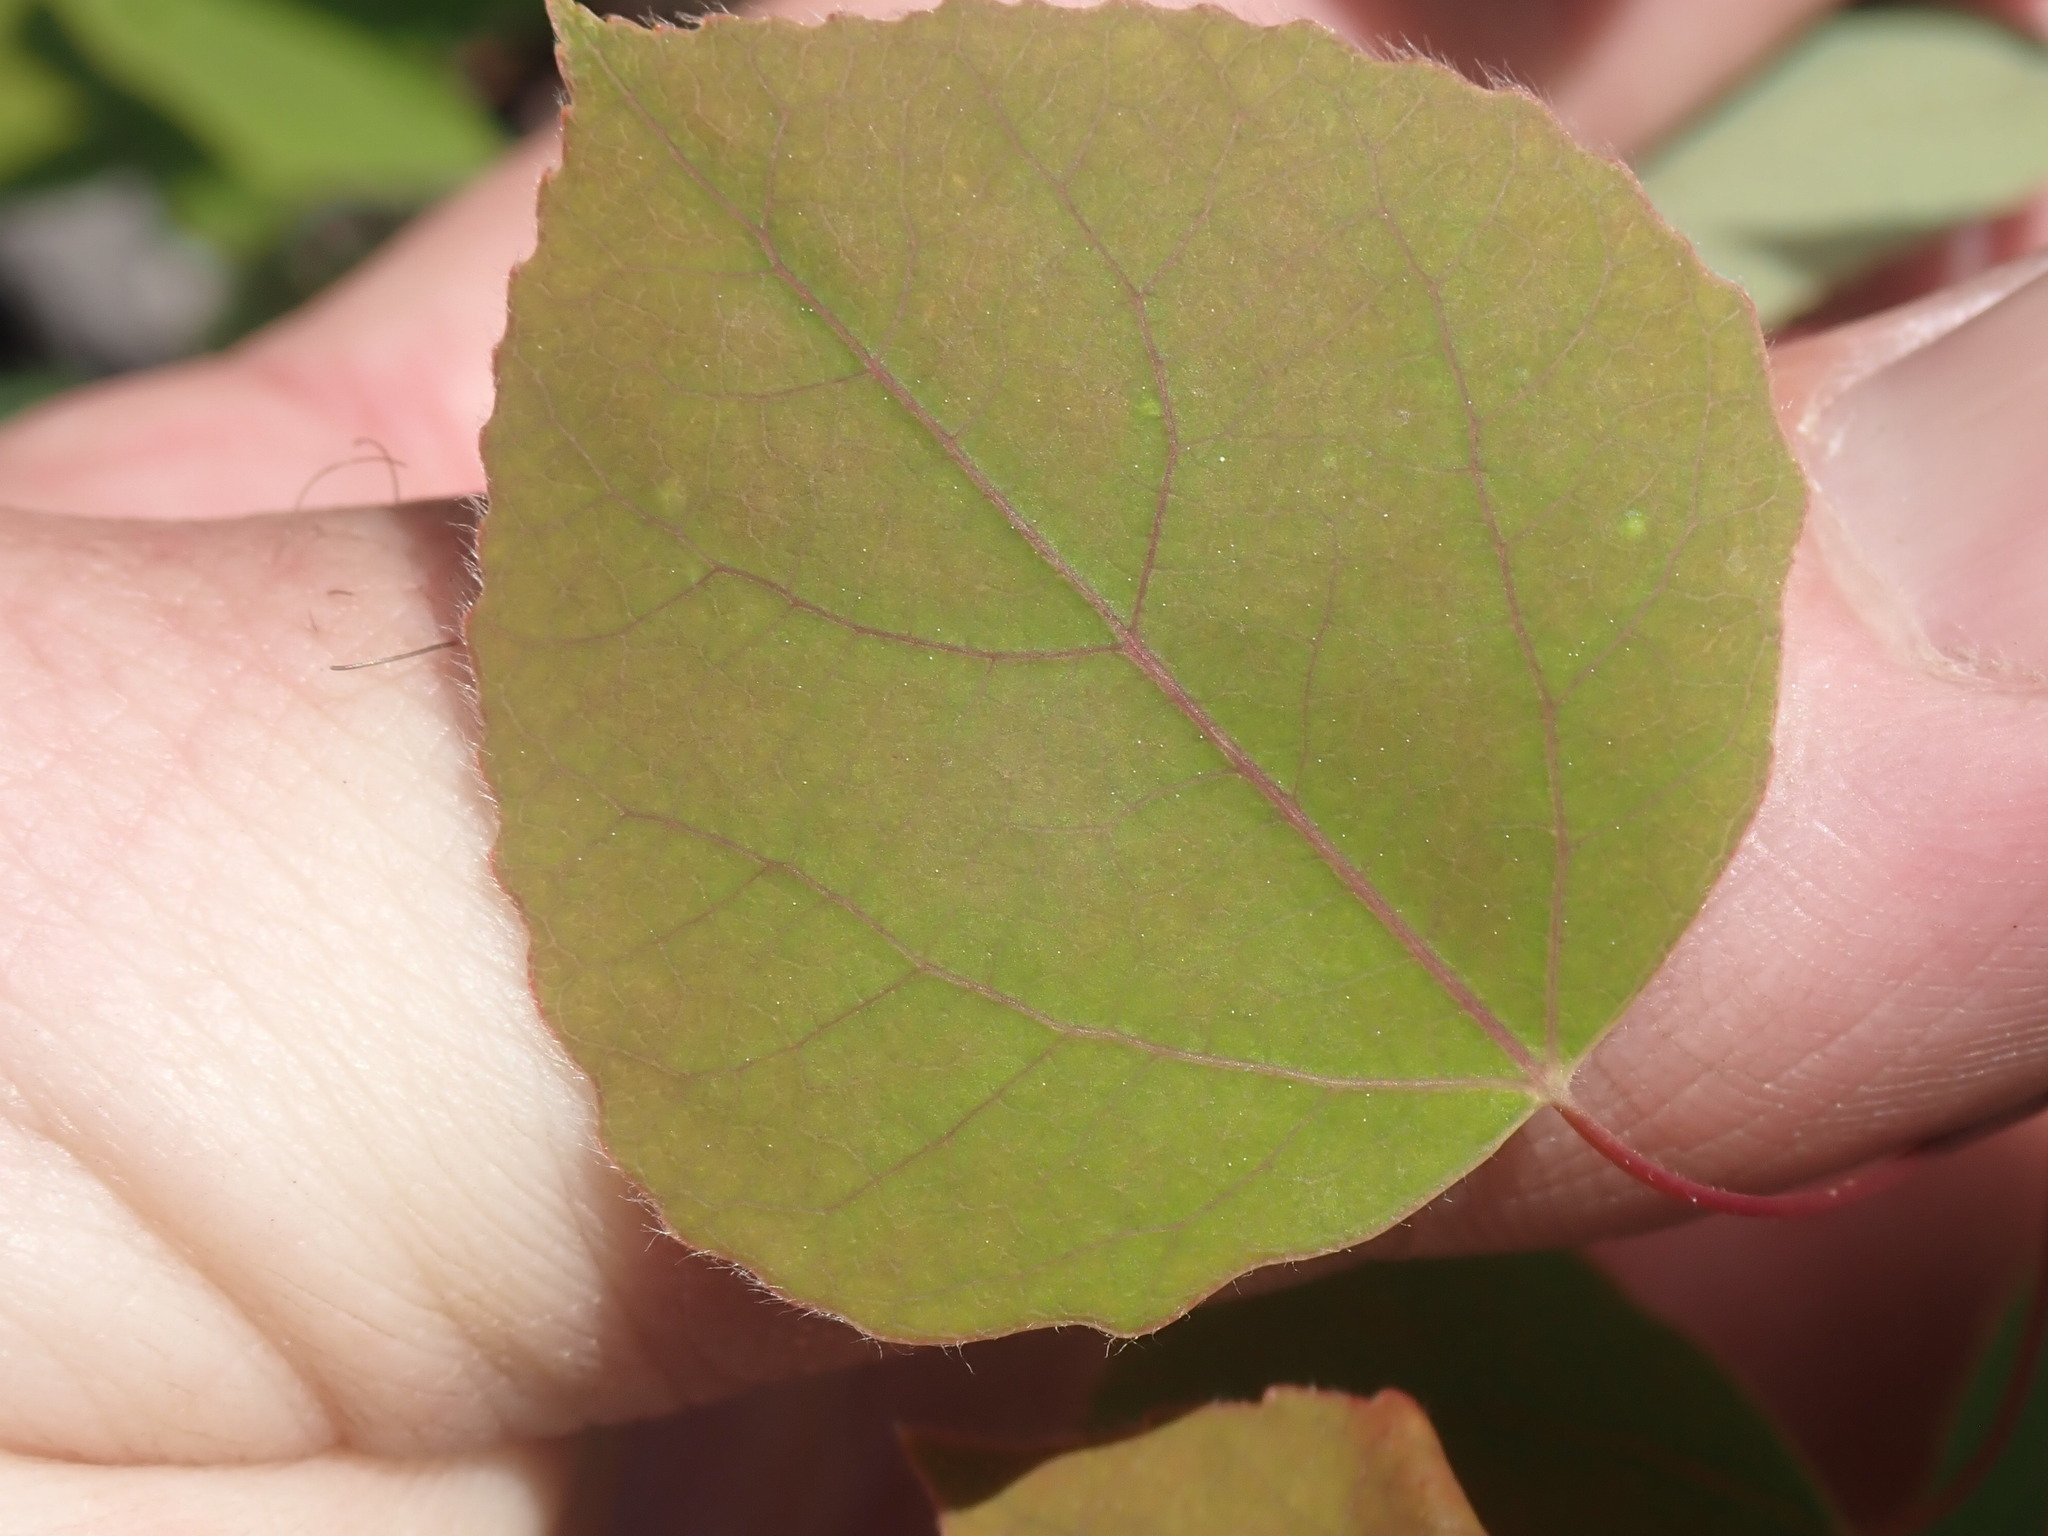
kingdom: Plantae
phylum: Tracheophyta
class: Magnoliopsida
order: Malpighiales
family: Salicaceae
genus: Populus
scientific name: Populus tremuloides
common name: Quaking aspen
